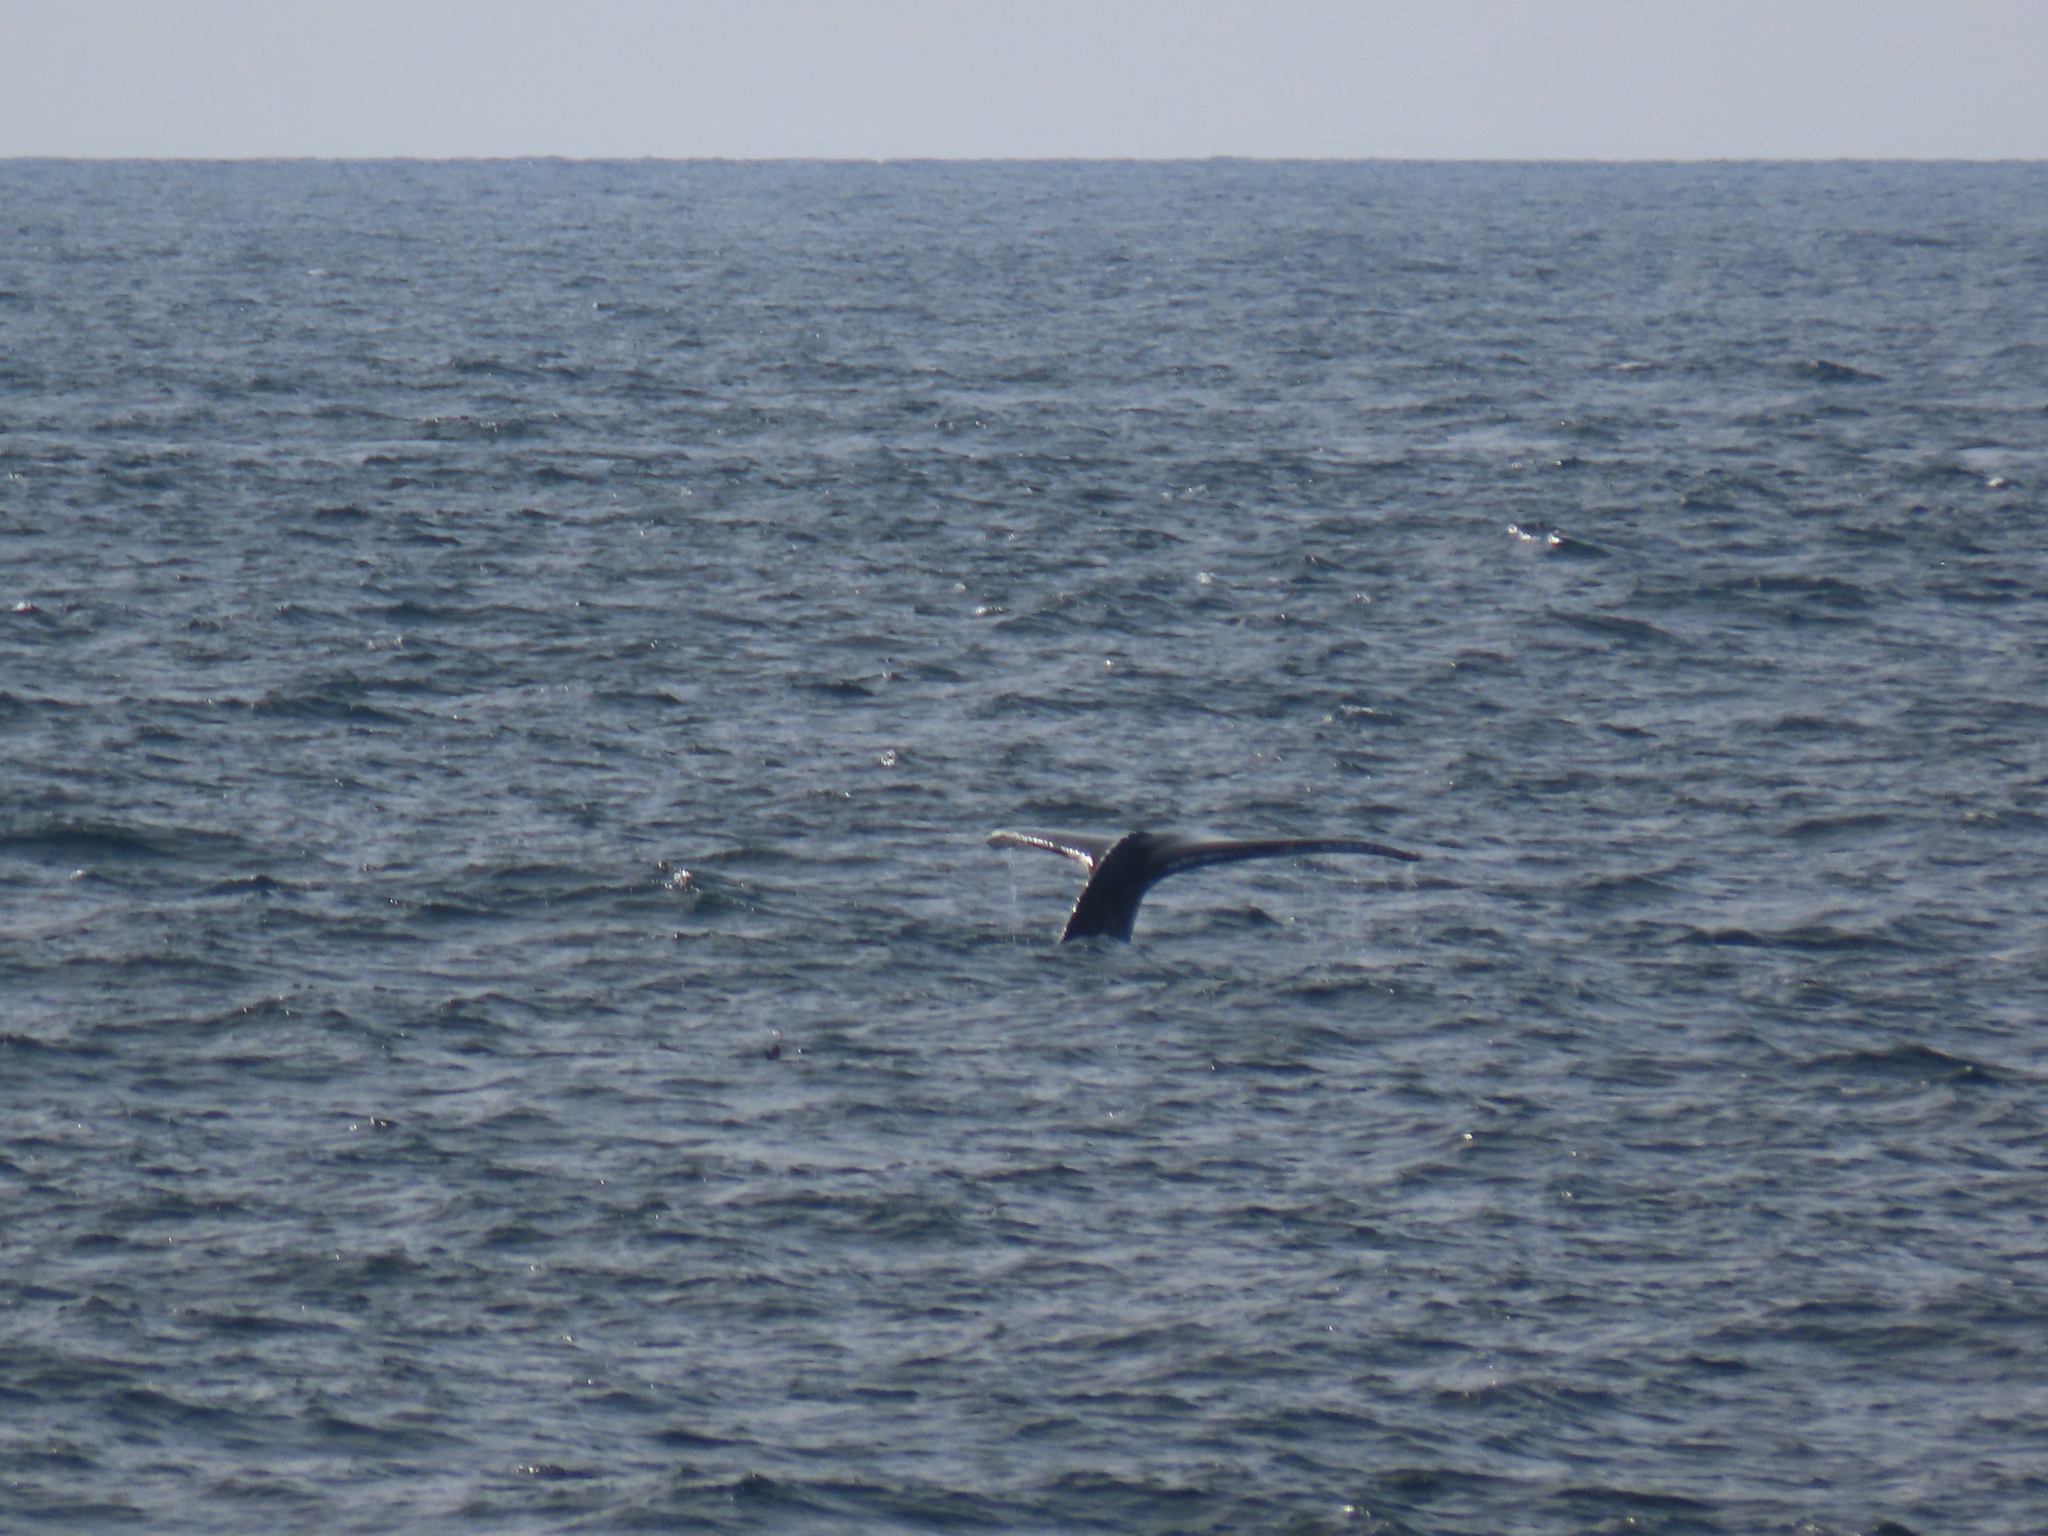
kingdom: Animalia
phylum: Chordata
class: Mammalia
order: Cetacea
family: Balaenopteridae
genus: Megaptera
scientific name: Megaptera novaeangliae
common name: Humpback whale
